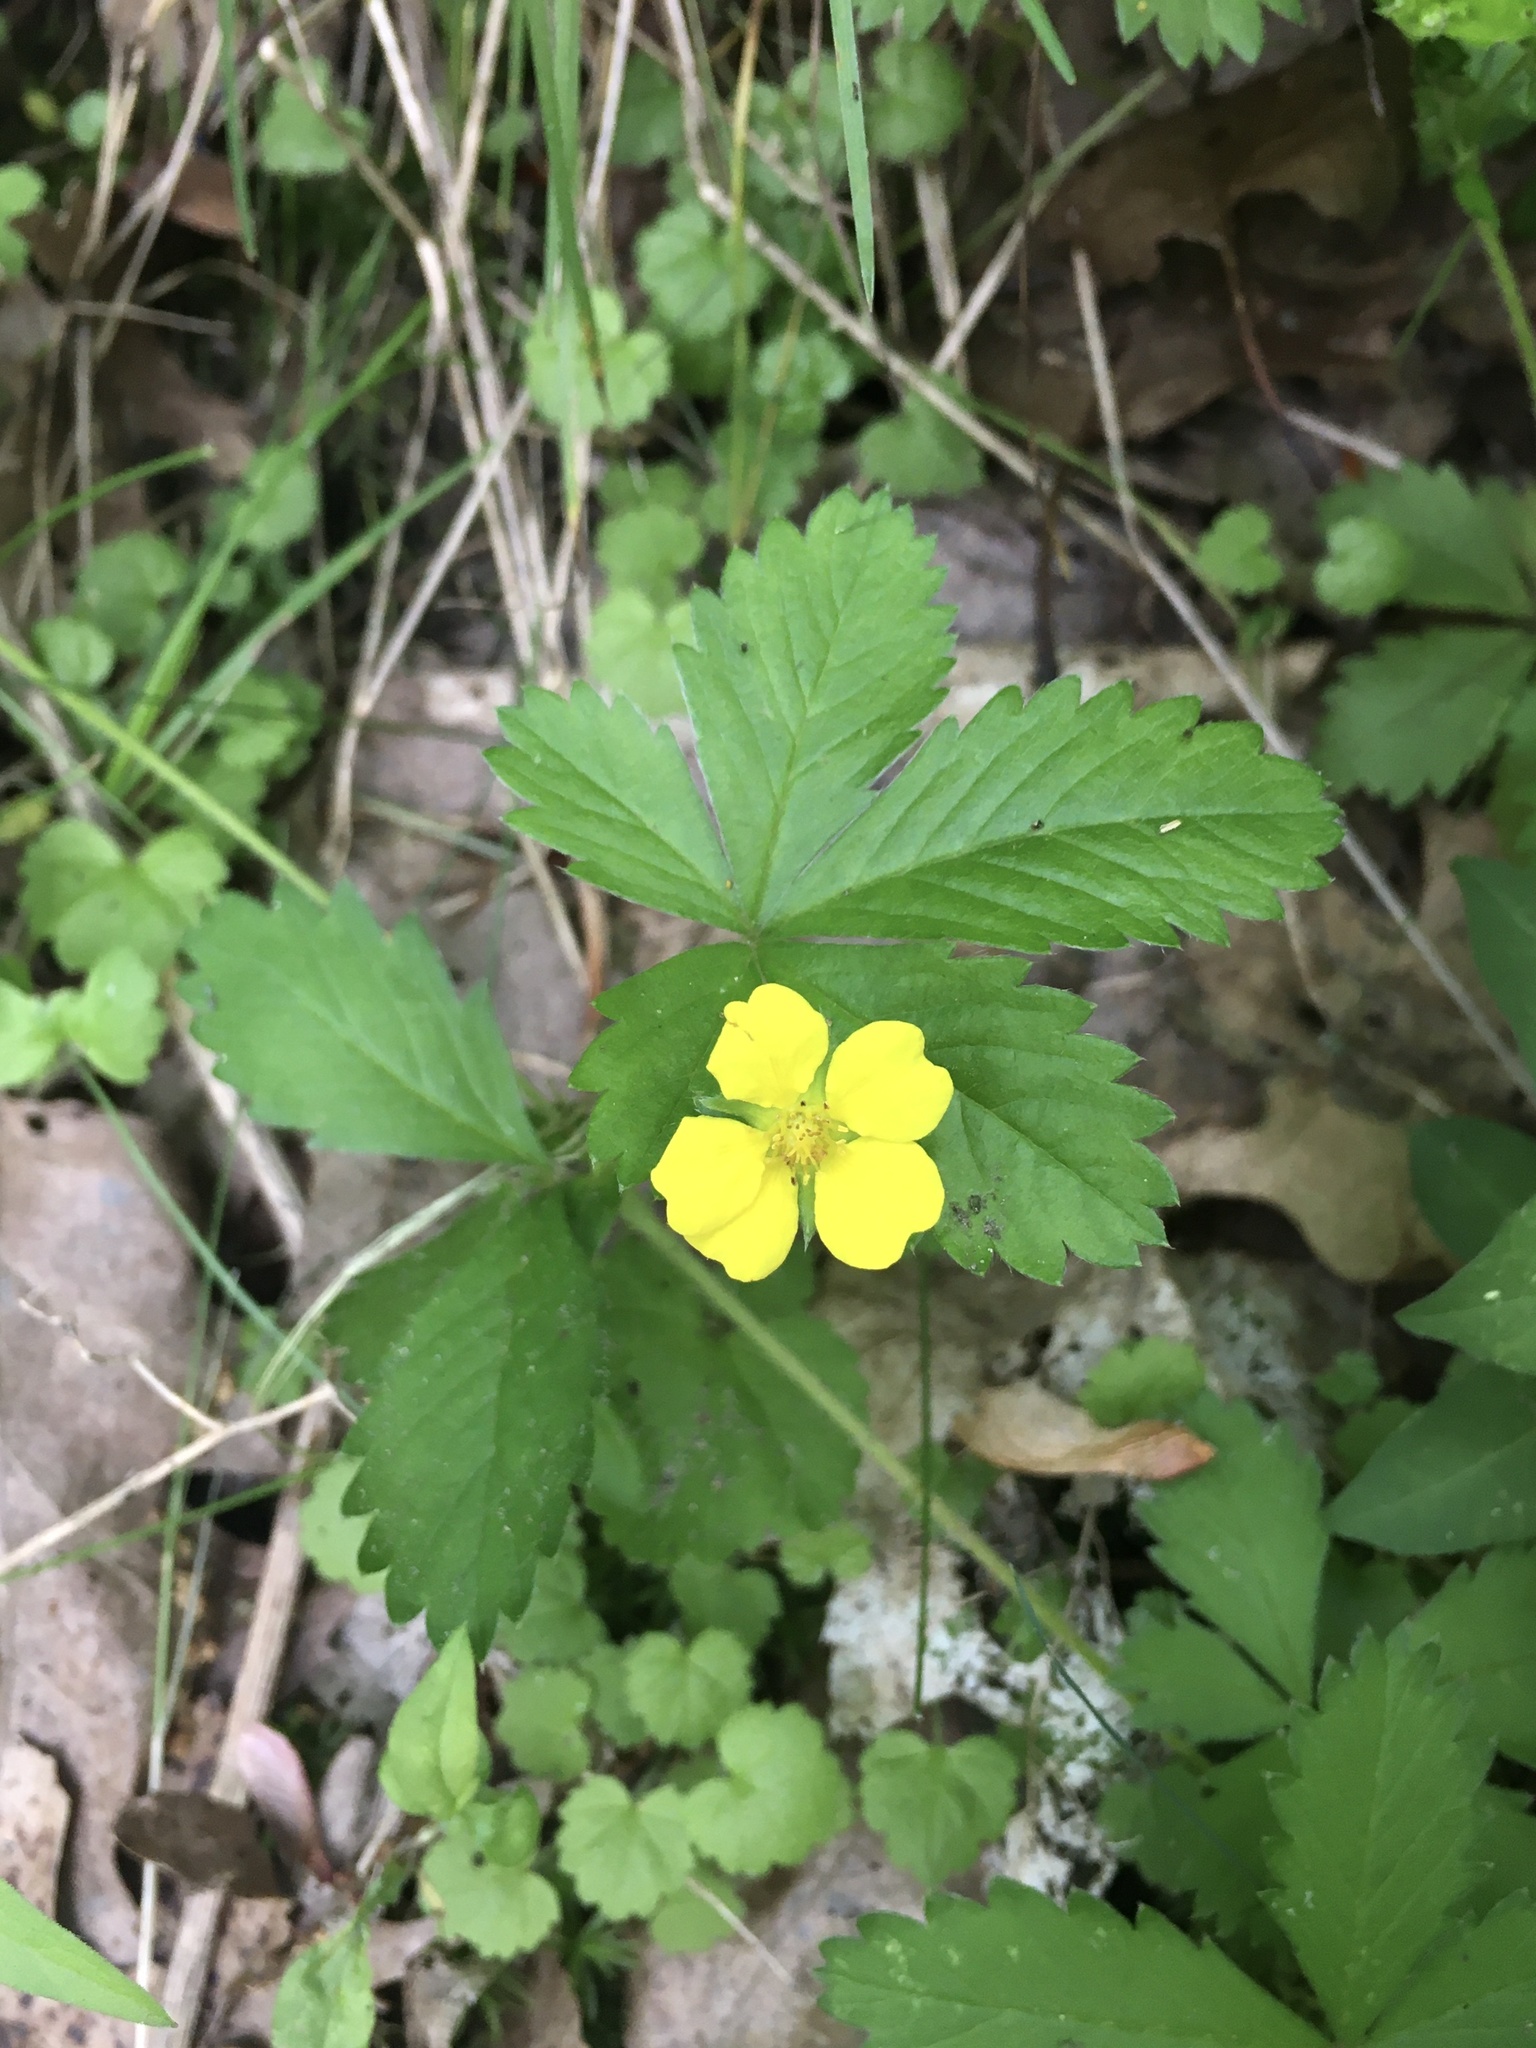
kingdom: Plantae
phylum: Tracheophyta
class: Magnoliopsida
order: Rosales
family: Rosaceae
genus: Potentilla
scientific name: Potentilla simplex
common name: Old field cinquefoil
